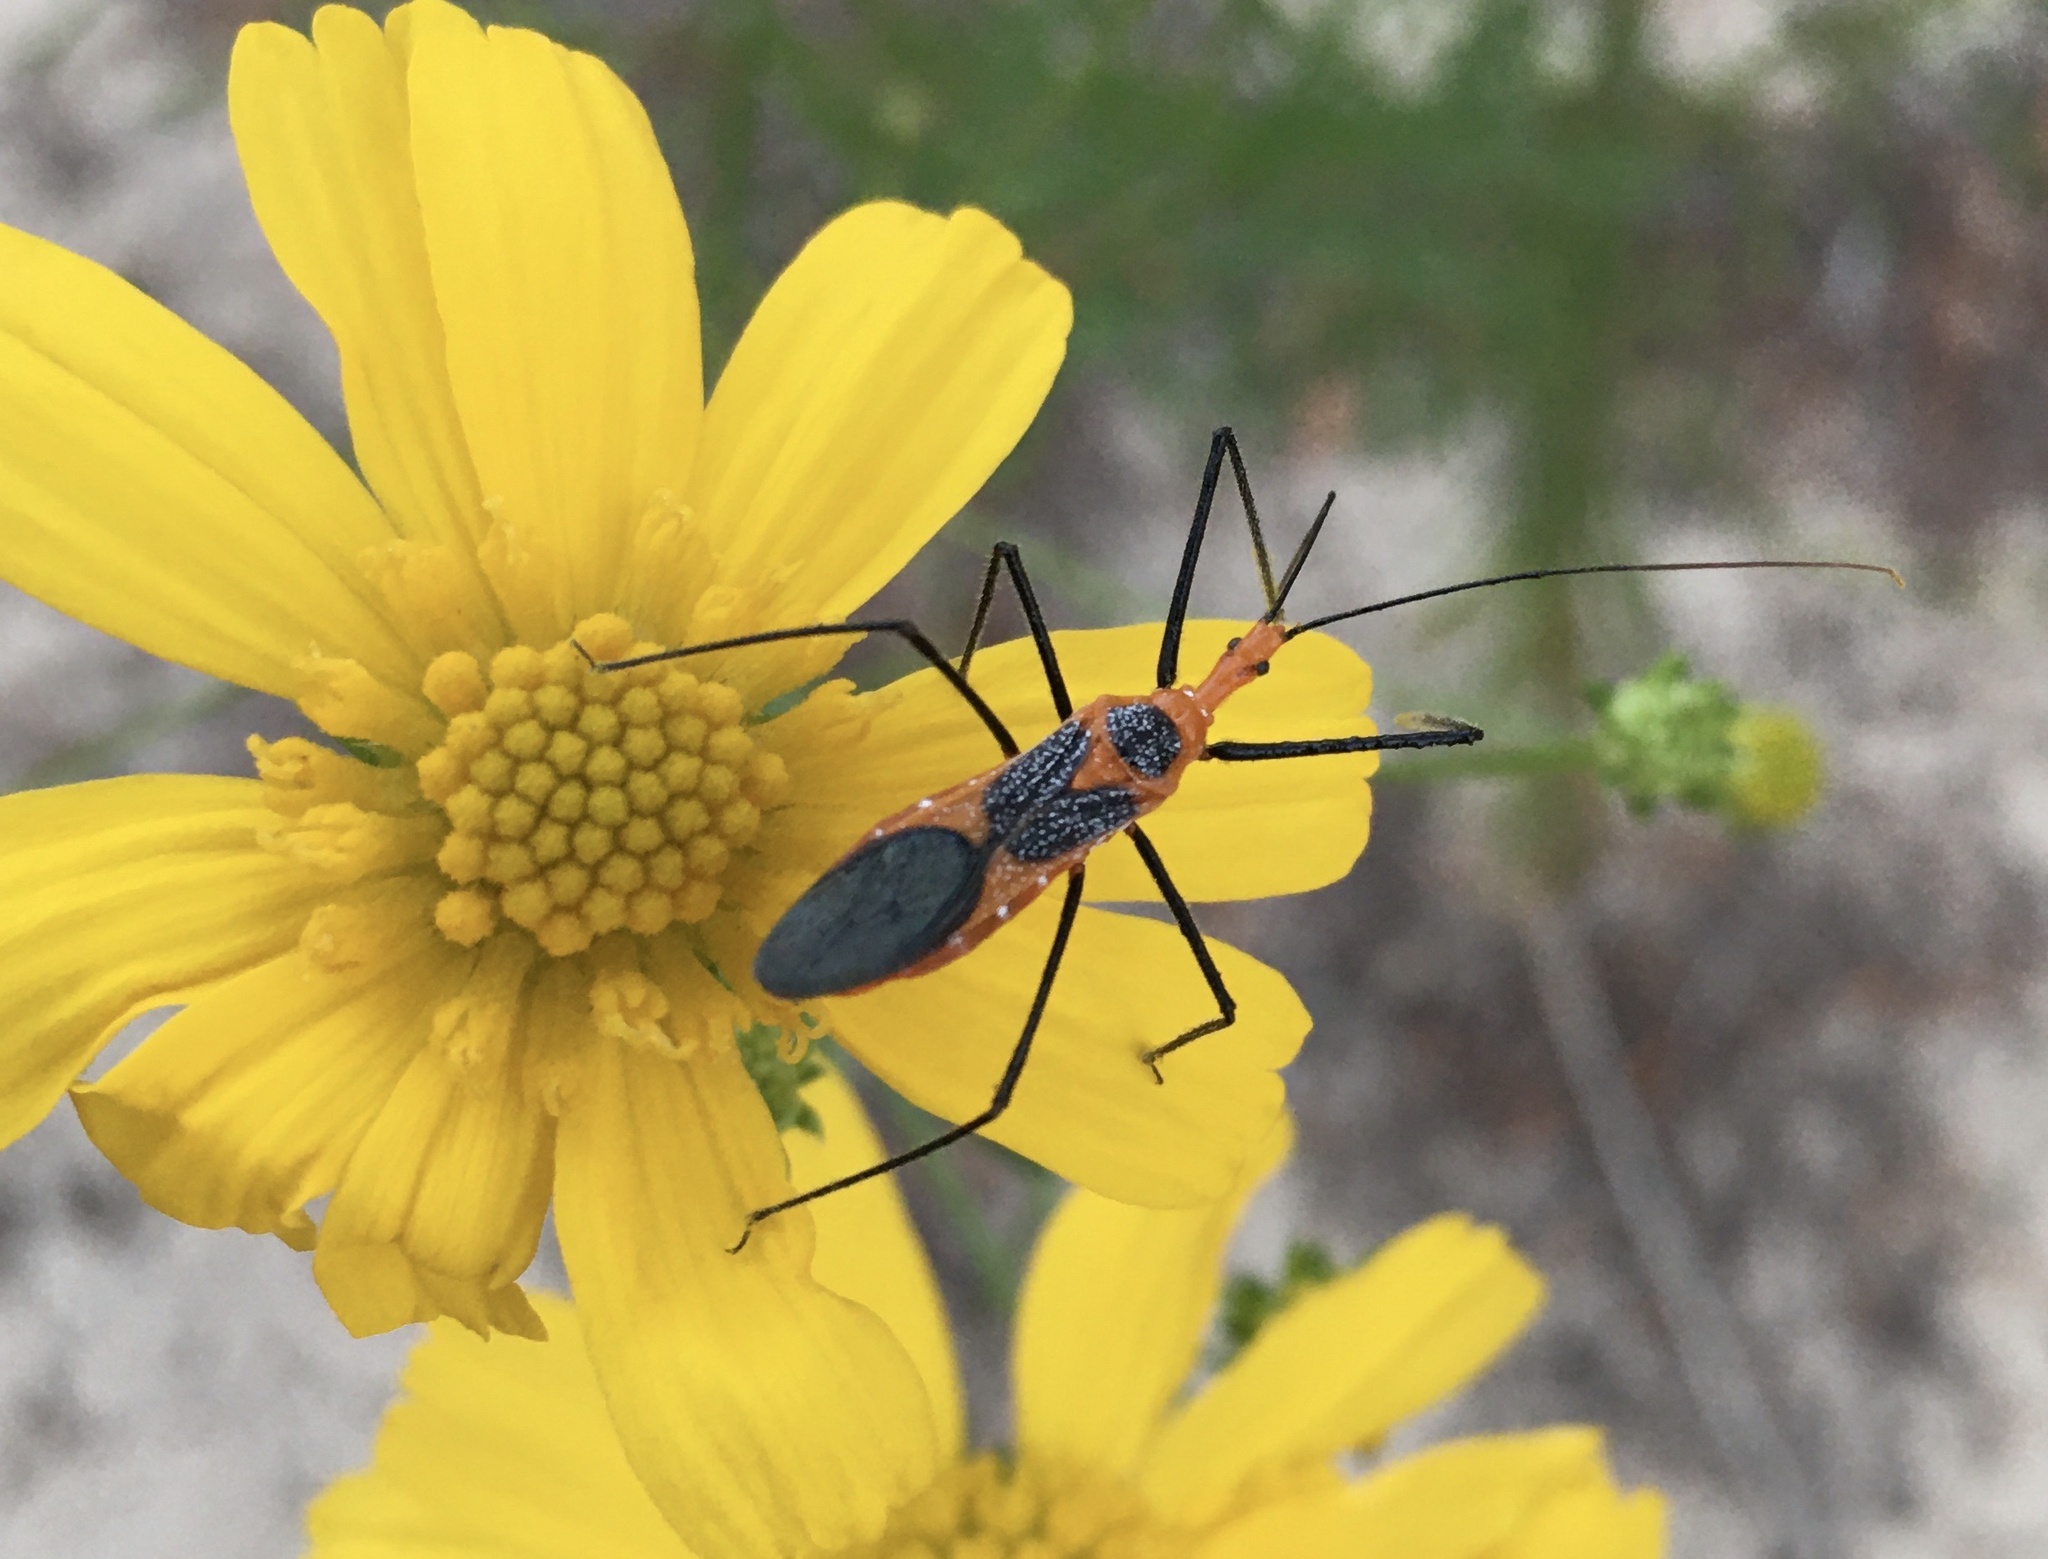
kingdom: Animalia
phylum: Arthropoda
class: Insecta
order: Hemiptera
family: Reduviidae
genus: Zelus
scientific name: Zelus longipes
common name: Milkweed assassin bug
